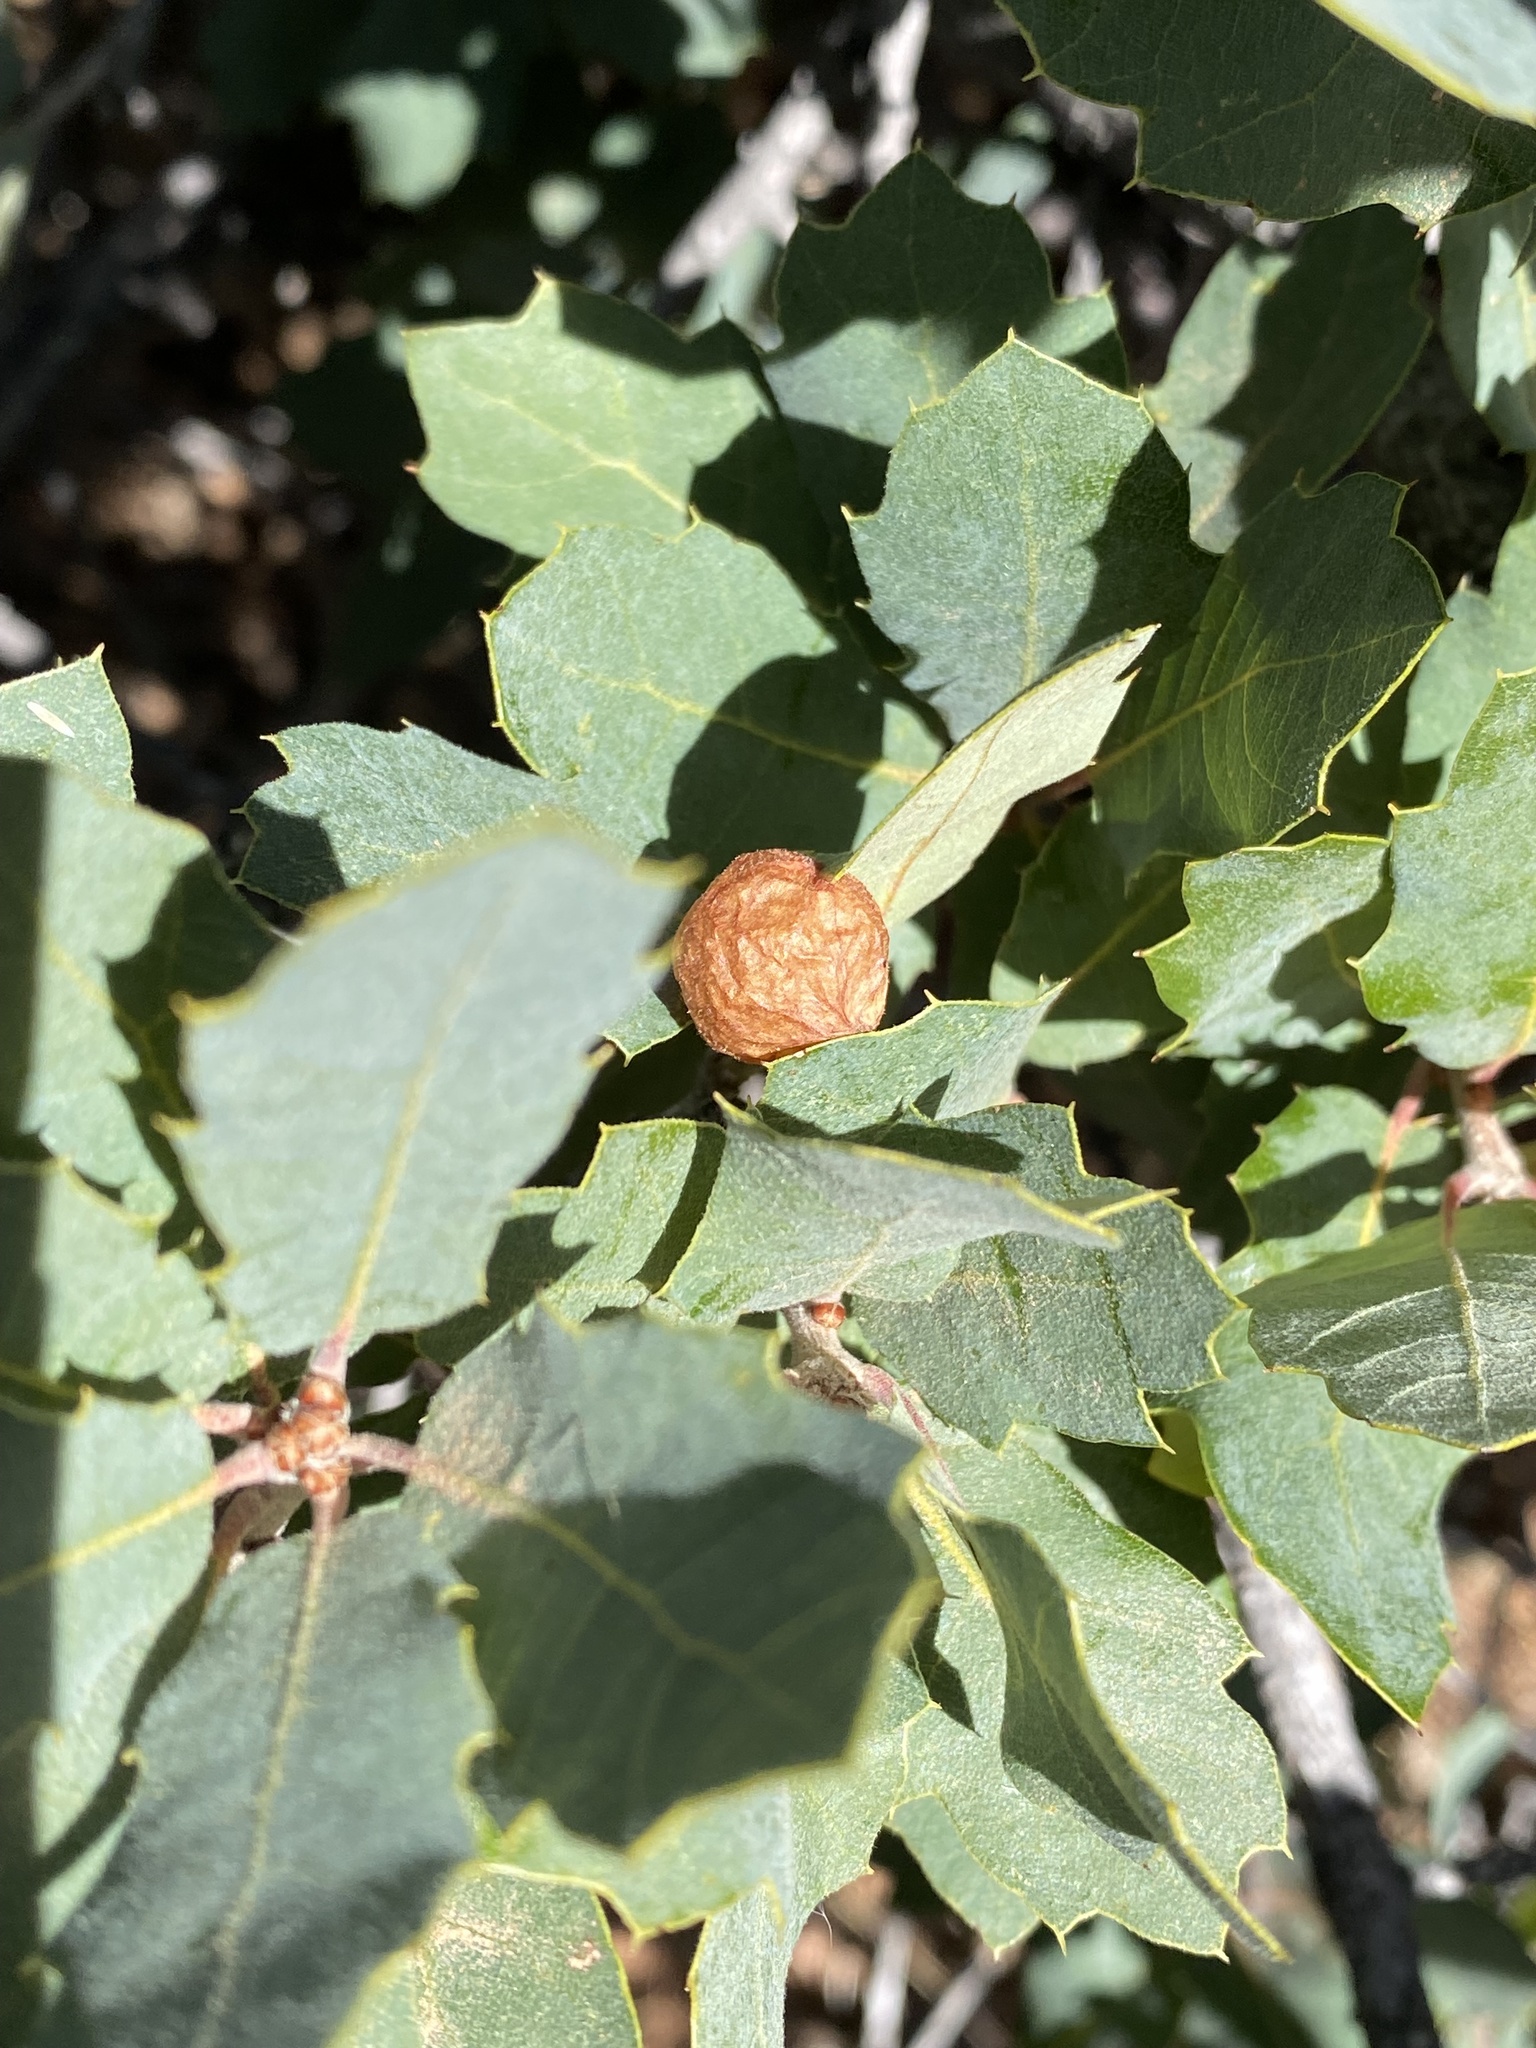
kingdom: Animalia
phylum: Arthropoda
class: Insecta
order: Hymenoptera
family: Cynipidae
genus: Atrusca
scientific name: Atrusca
